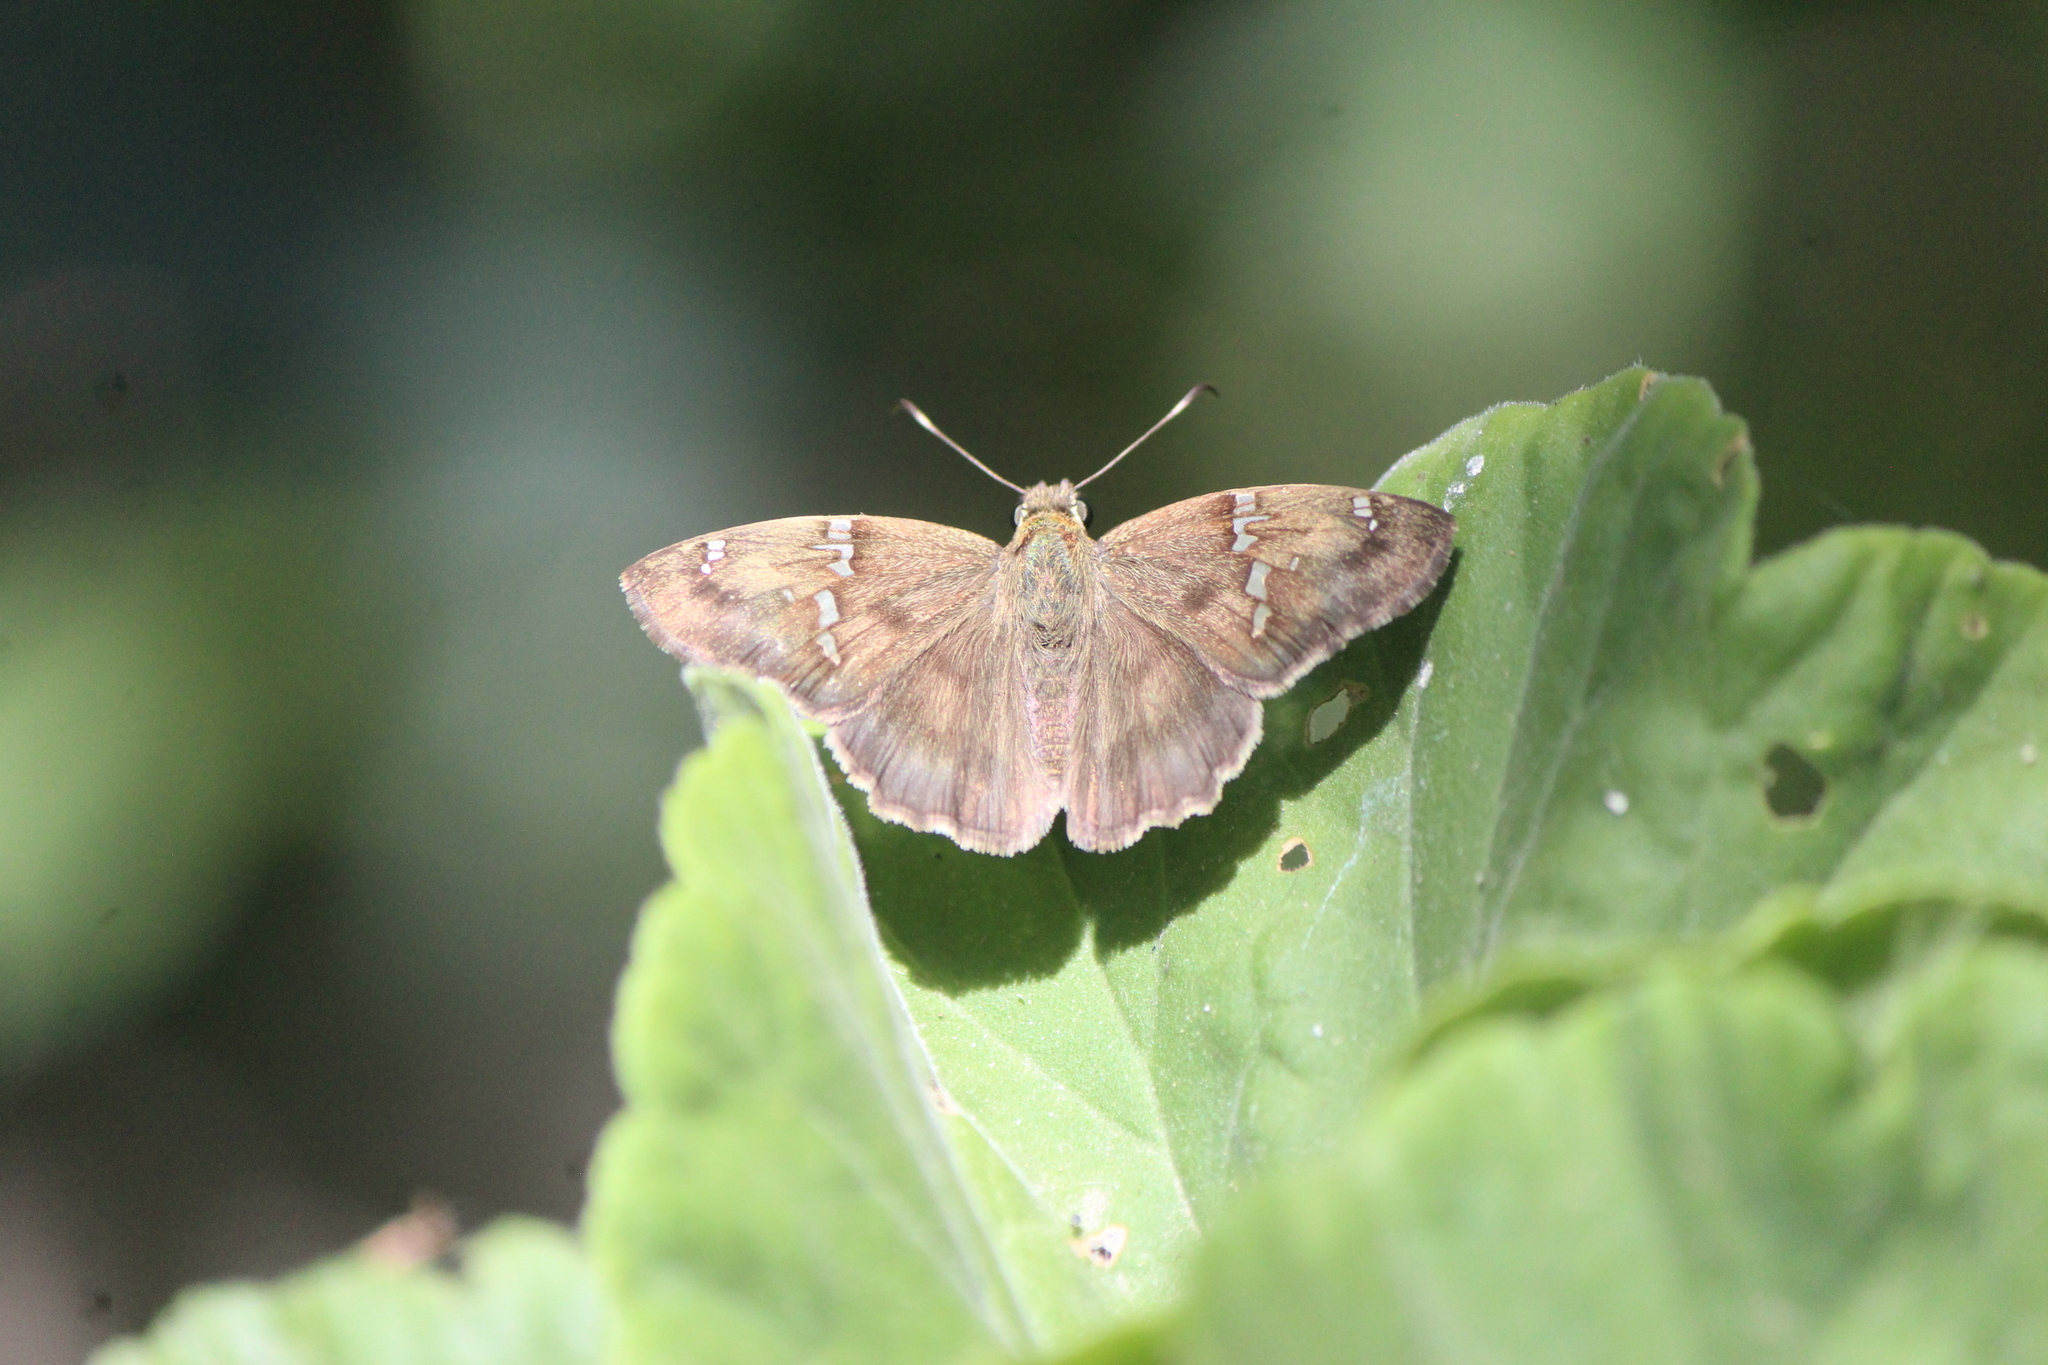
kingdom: Animalia
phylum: Arthropoda
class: Insecta
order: Lepidoptera
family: Hesperiidae
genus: Autochton
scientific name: Autochton potrillo
